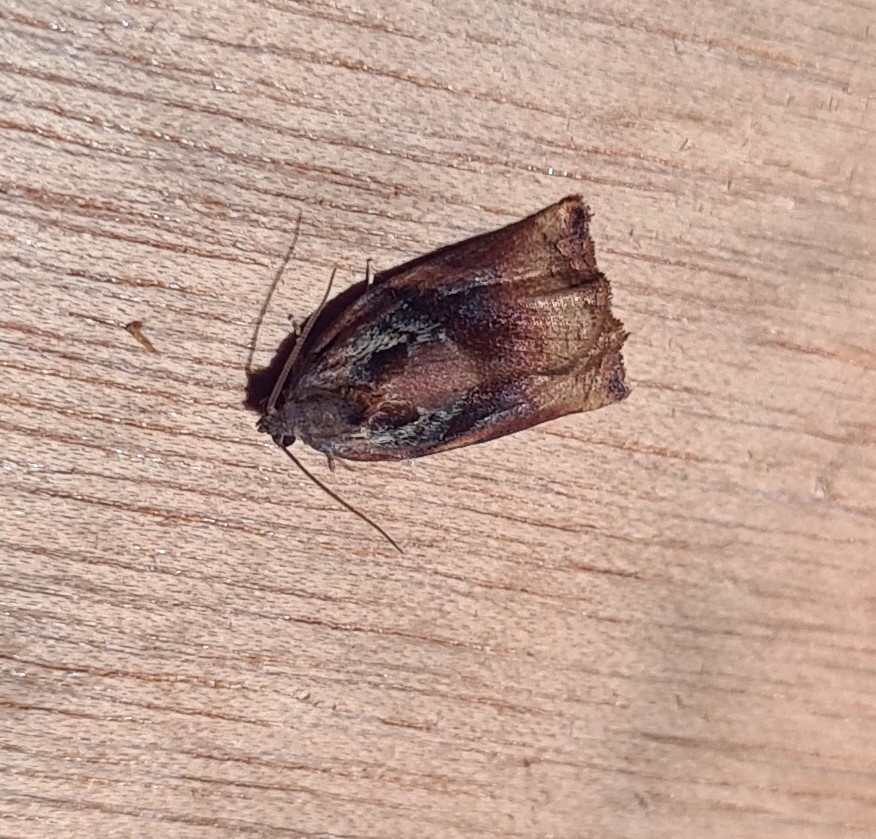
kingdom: Animalia
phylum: Arthropoda
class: Insecta
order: Lepidoptera
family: Tortricidae
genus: Archips
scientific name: Archips podana
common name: Large fruit-tree tortrix
